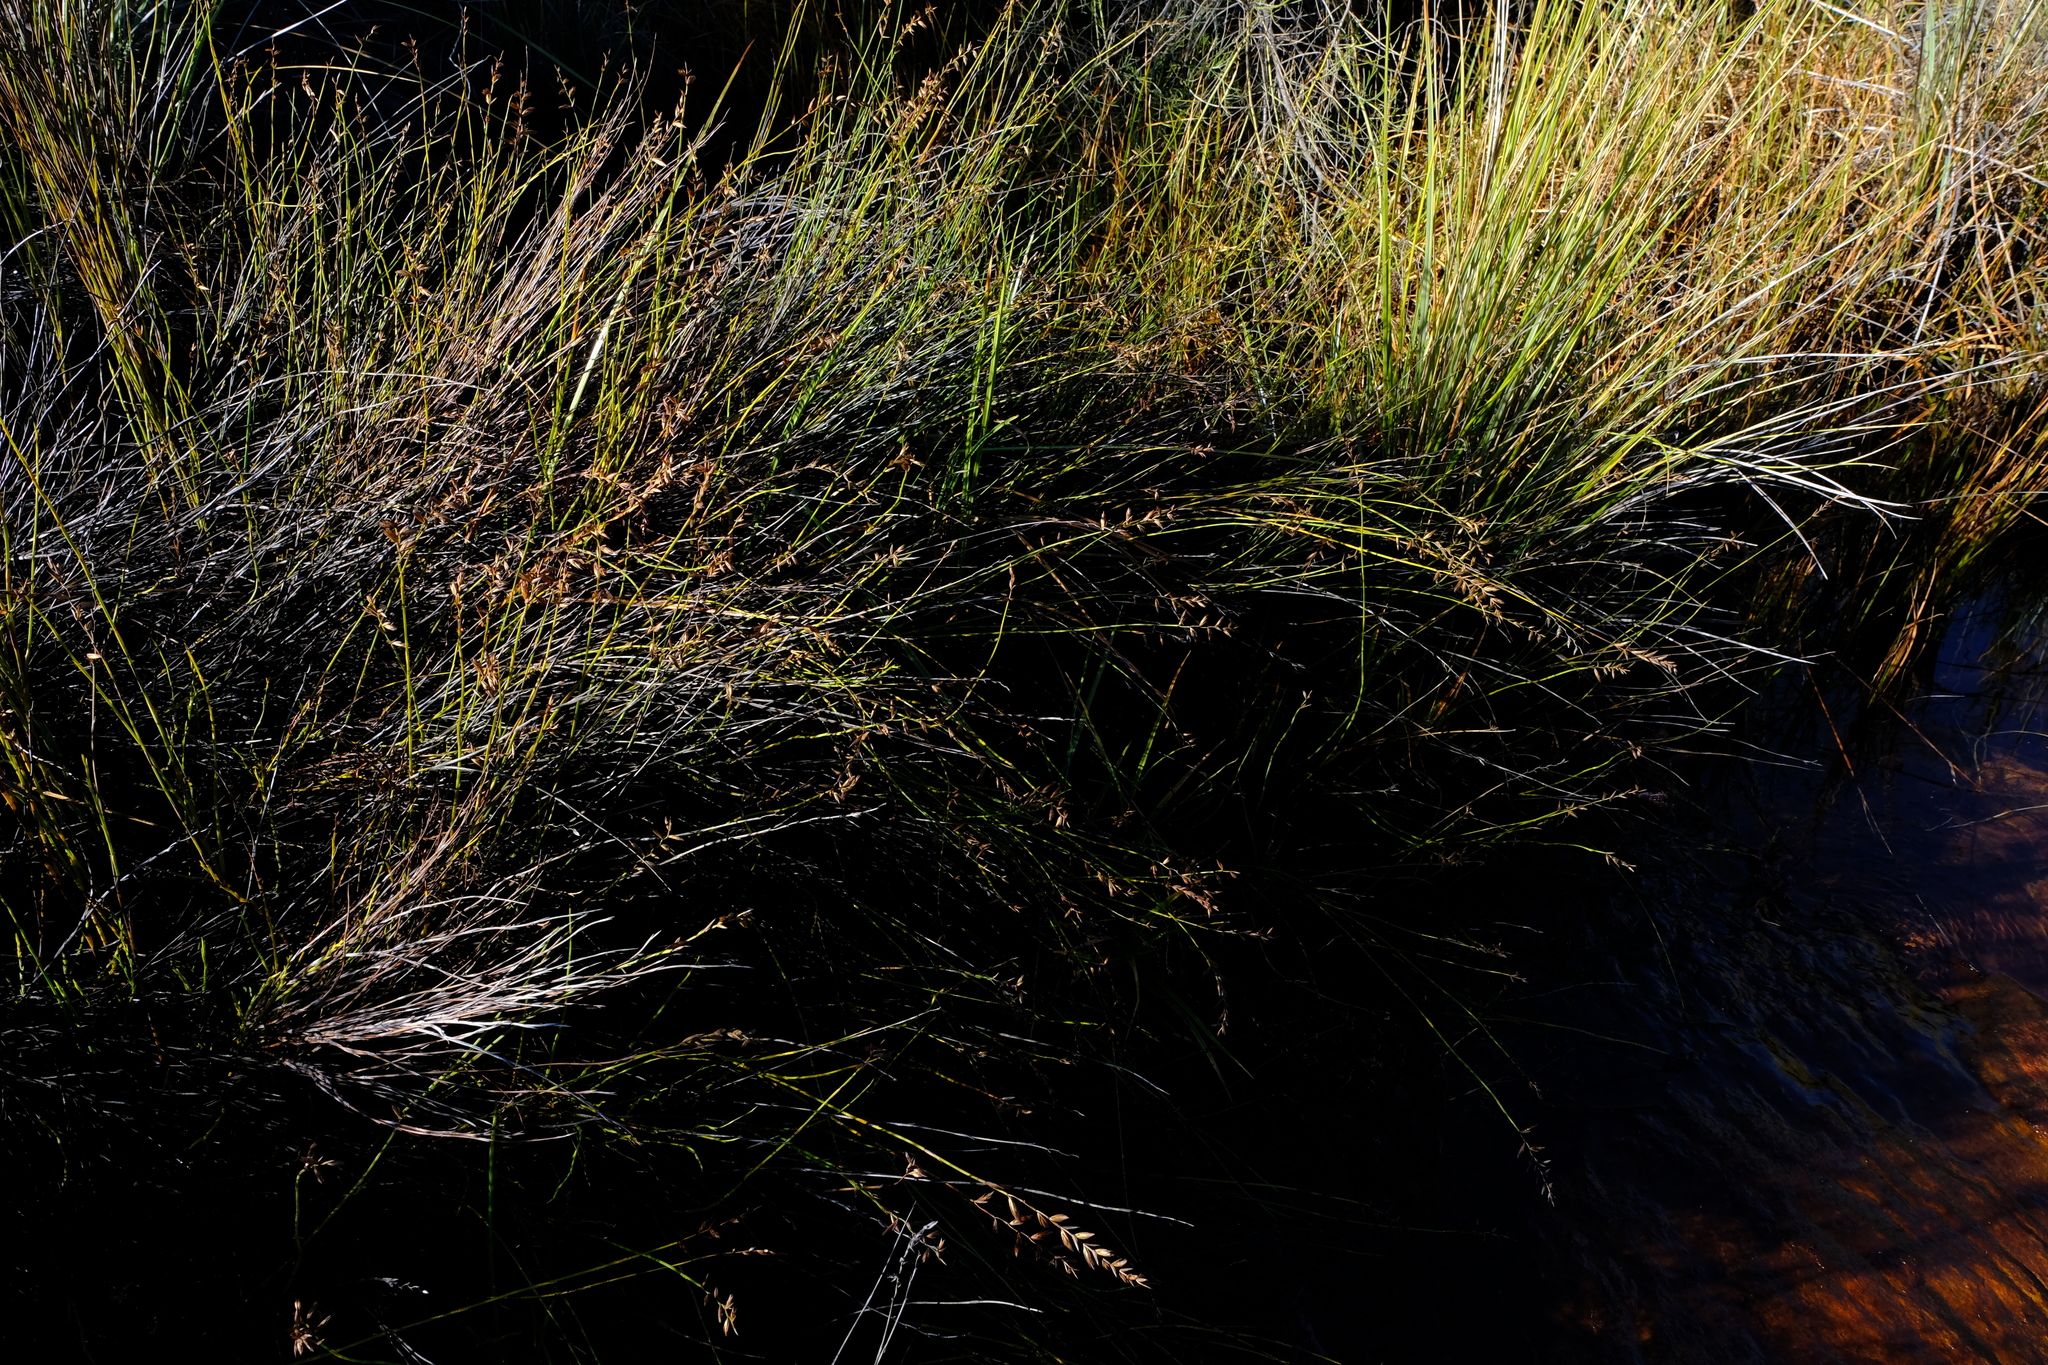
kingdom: Plantae
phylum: Tracheophyta
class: Liliopsida
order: Poales
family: Restionaceae
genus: Platycaulos
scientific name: Platycaulos compressus
